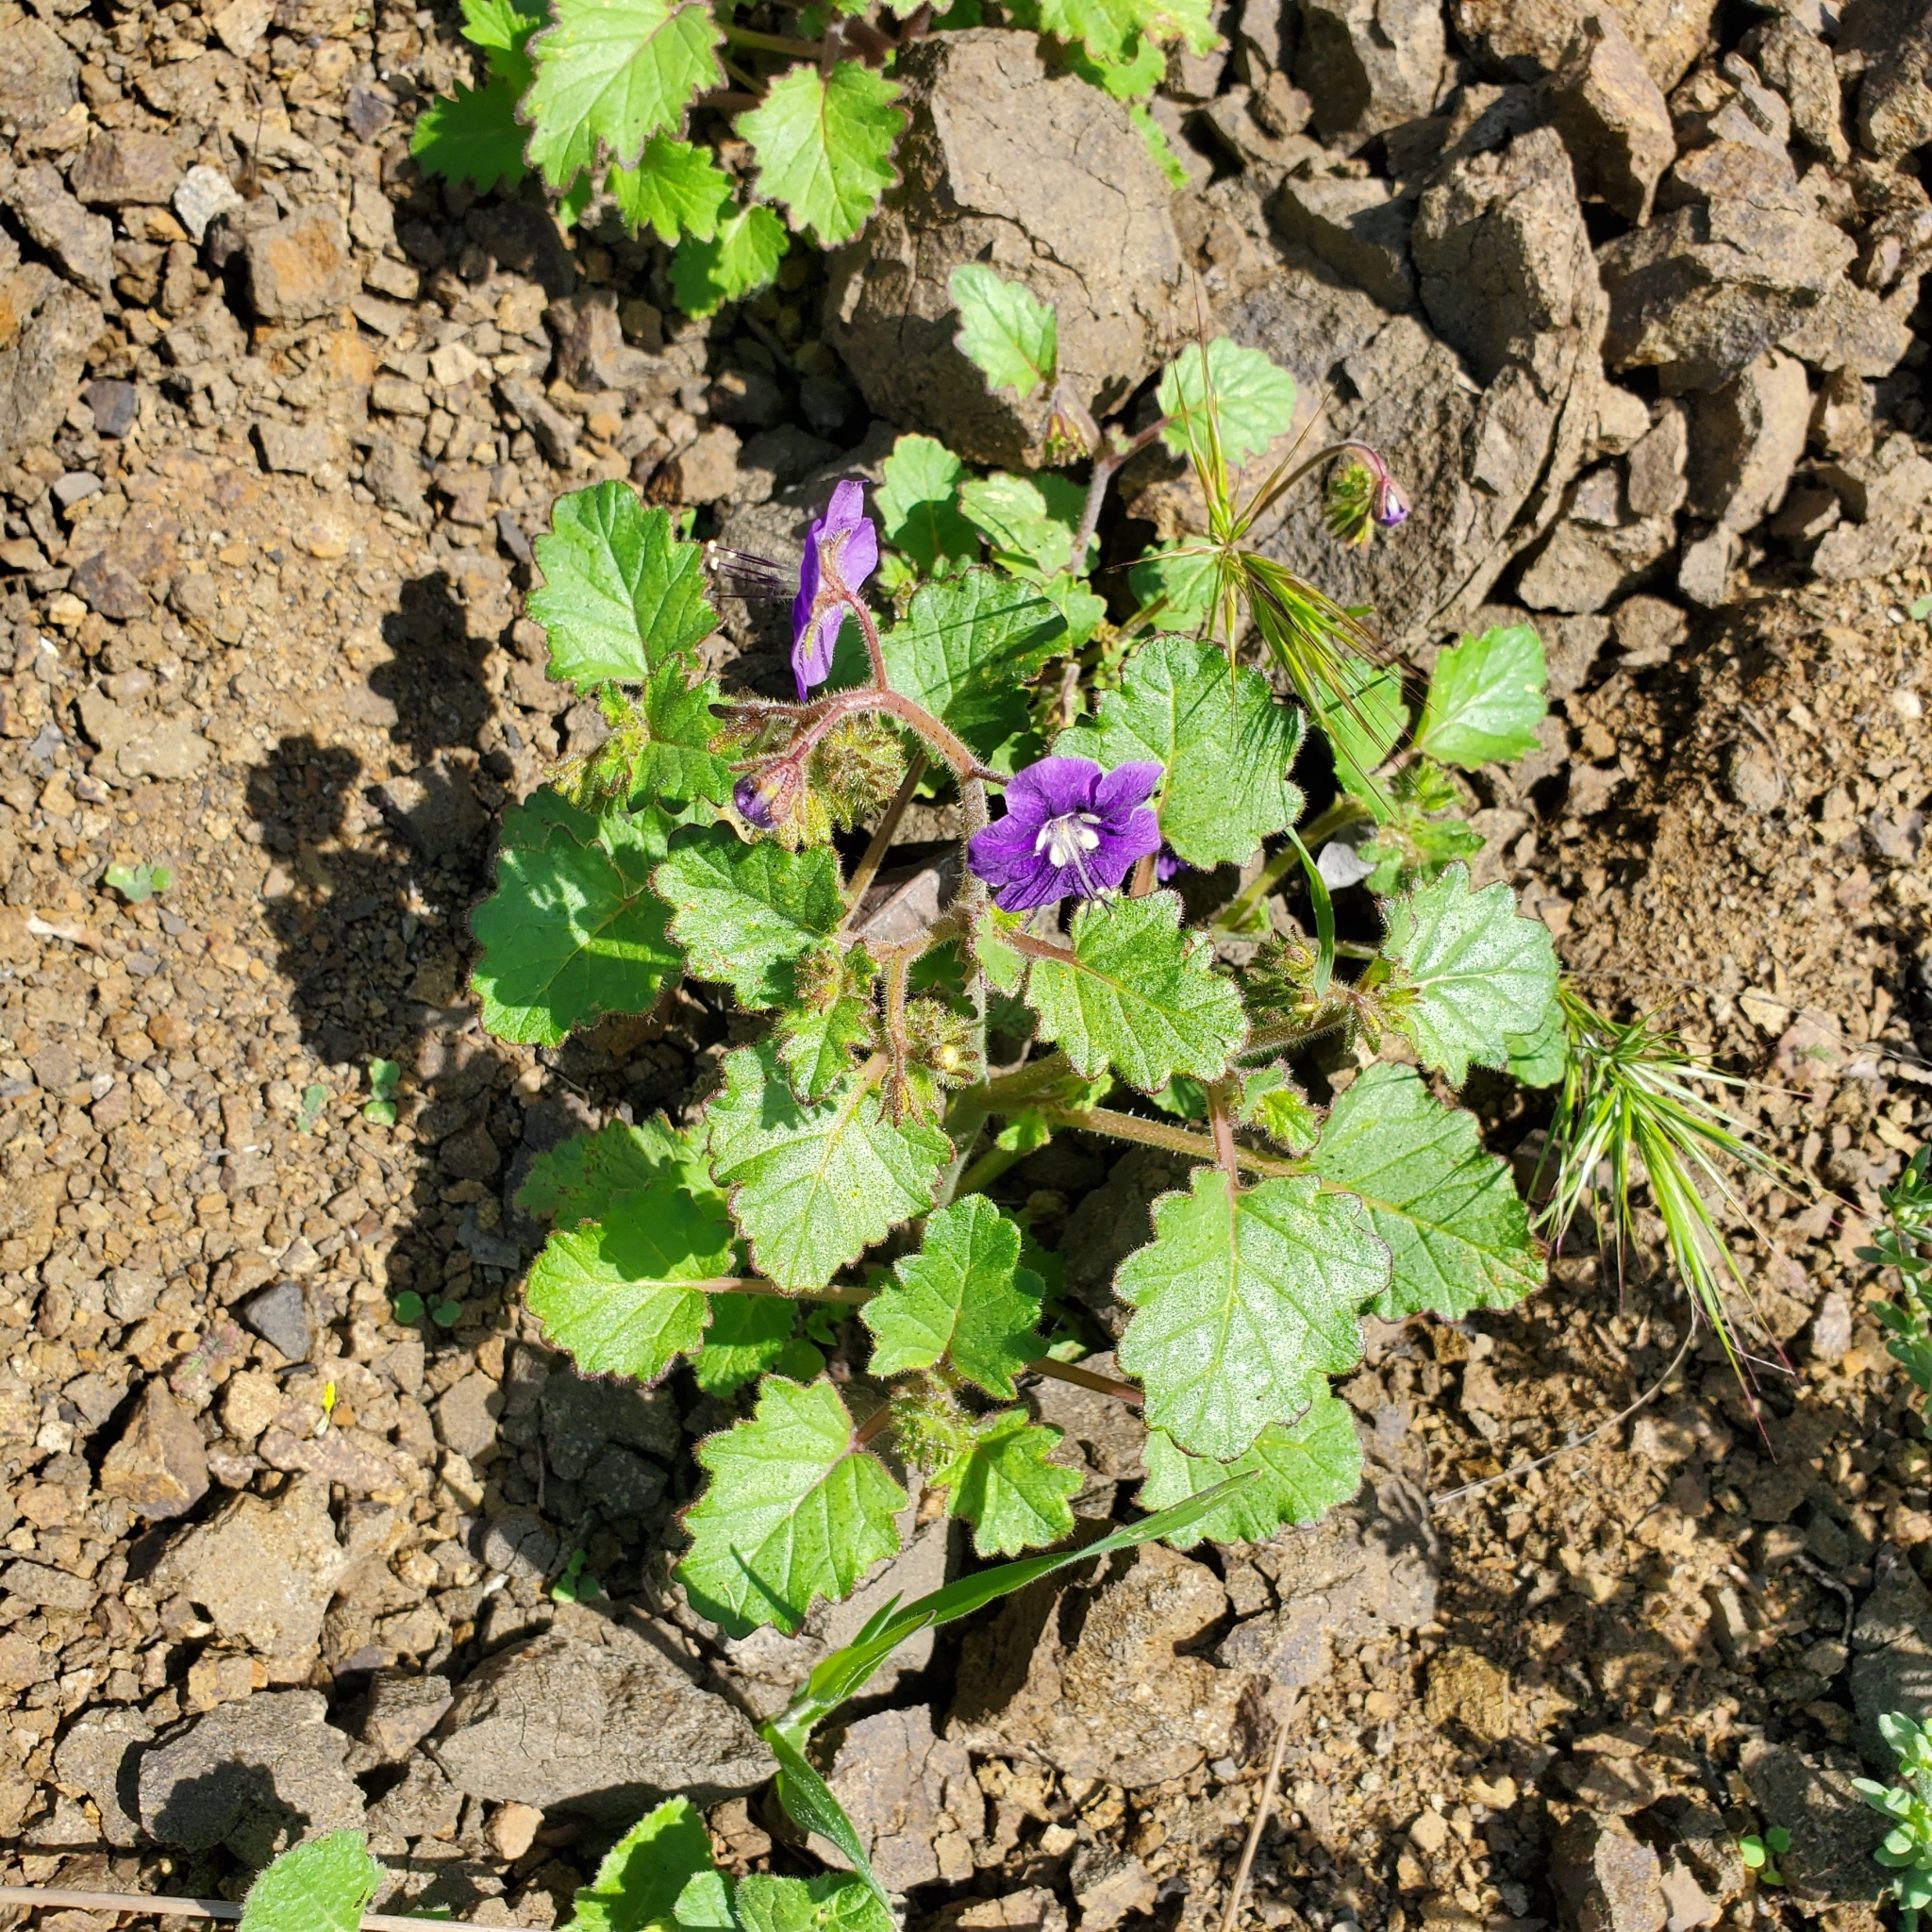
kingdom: Plantae
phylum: Tracheophyta
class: Magnoliopsida
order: Boraginales
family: Hydrophyllaceae
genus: Phacelia
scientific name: Phacelia parryi
